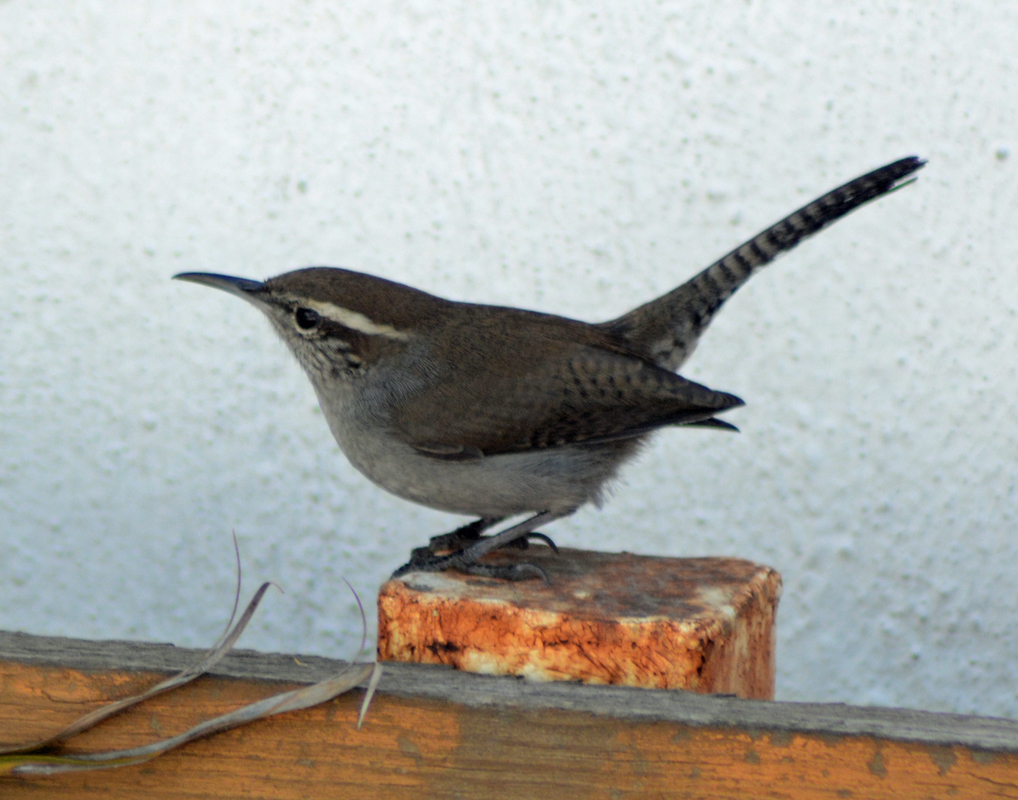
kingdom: Animalia
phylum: Chordata
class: Aves
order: Passeriformes
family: Troglodytidae
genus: Thryomanes
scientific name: Thryomanes bewickii
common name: Bewick's wren
